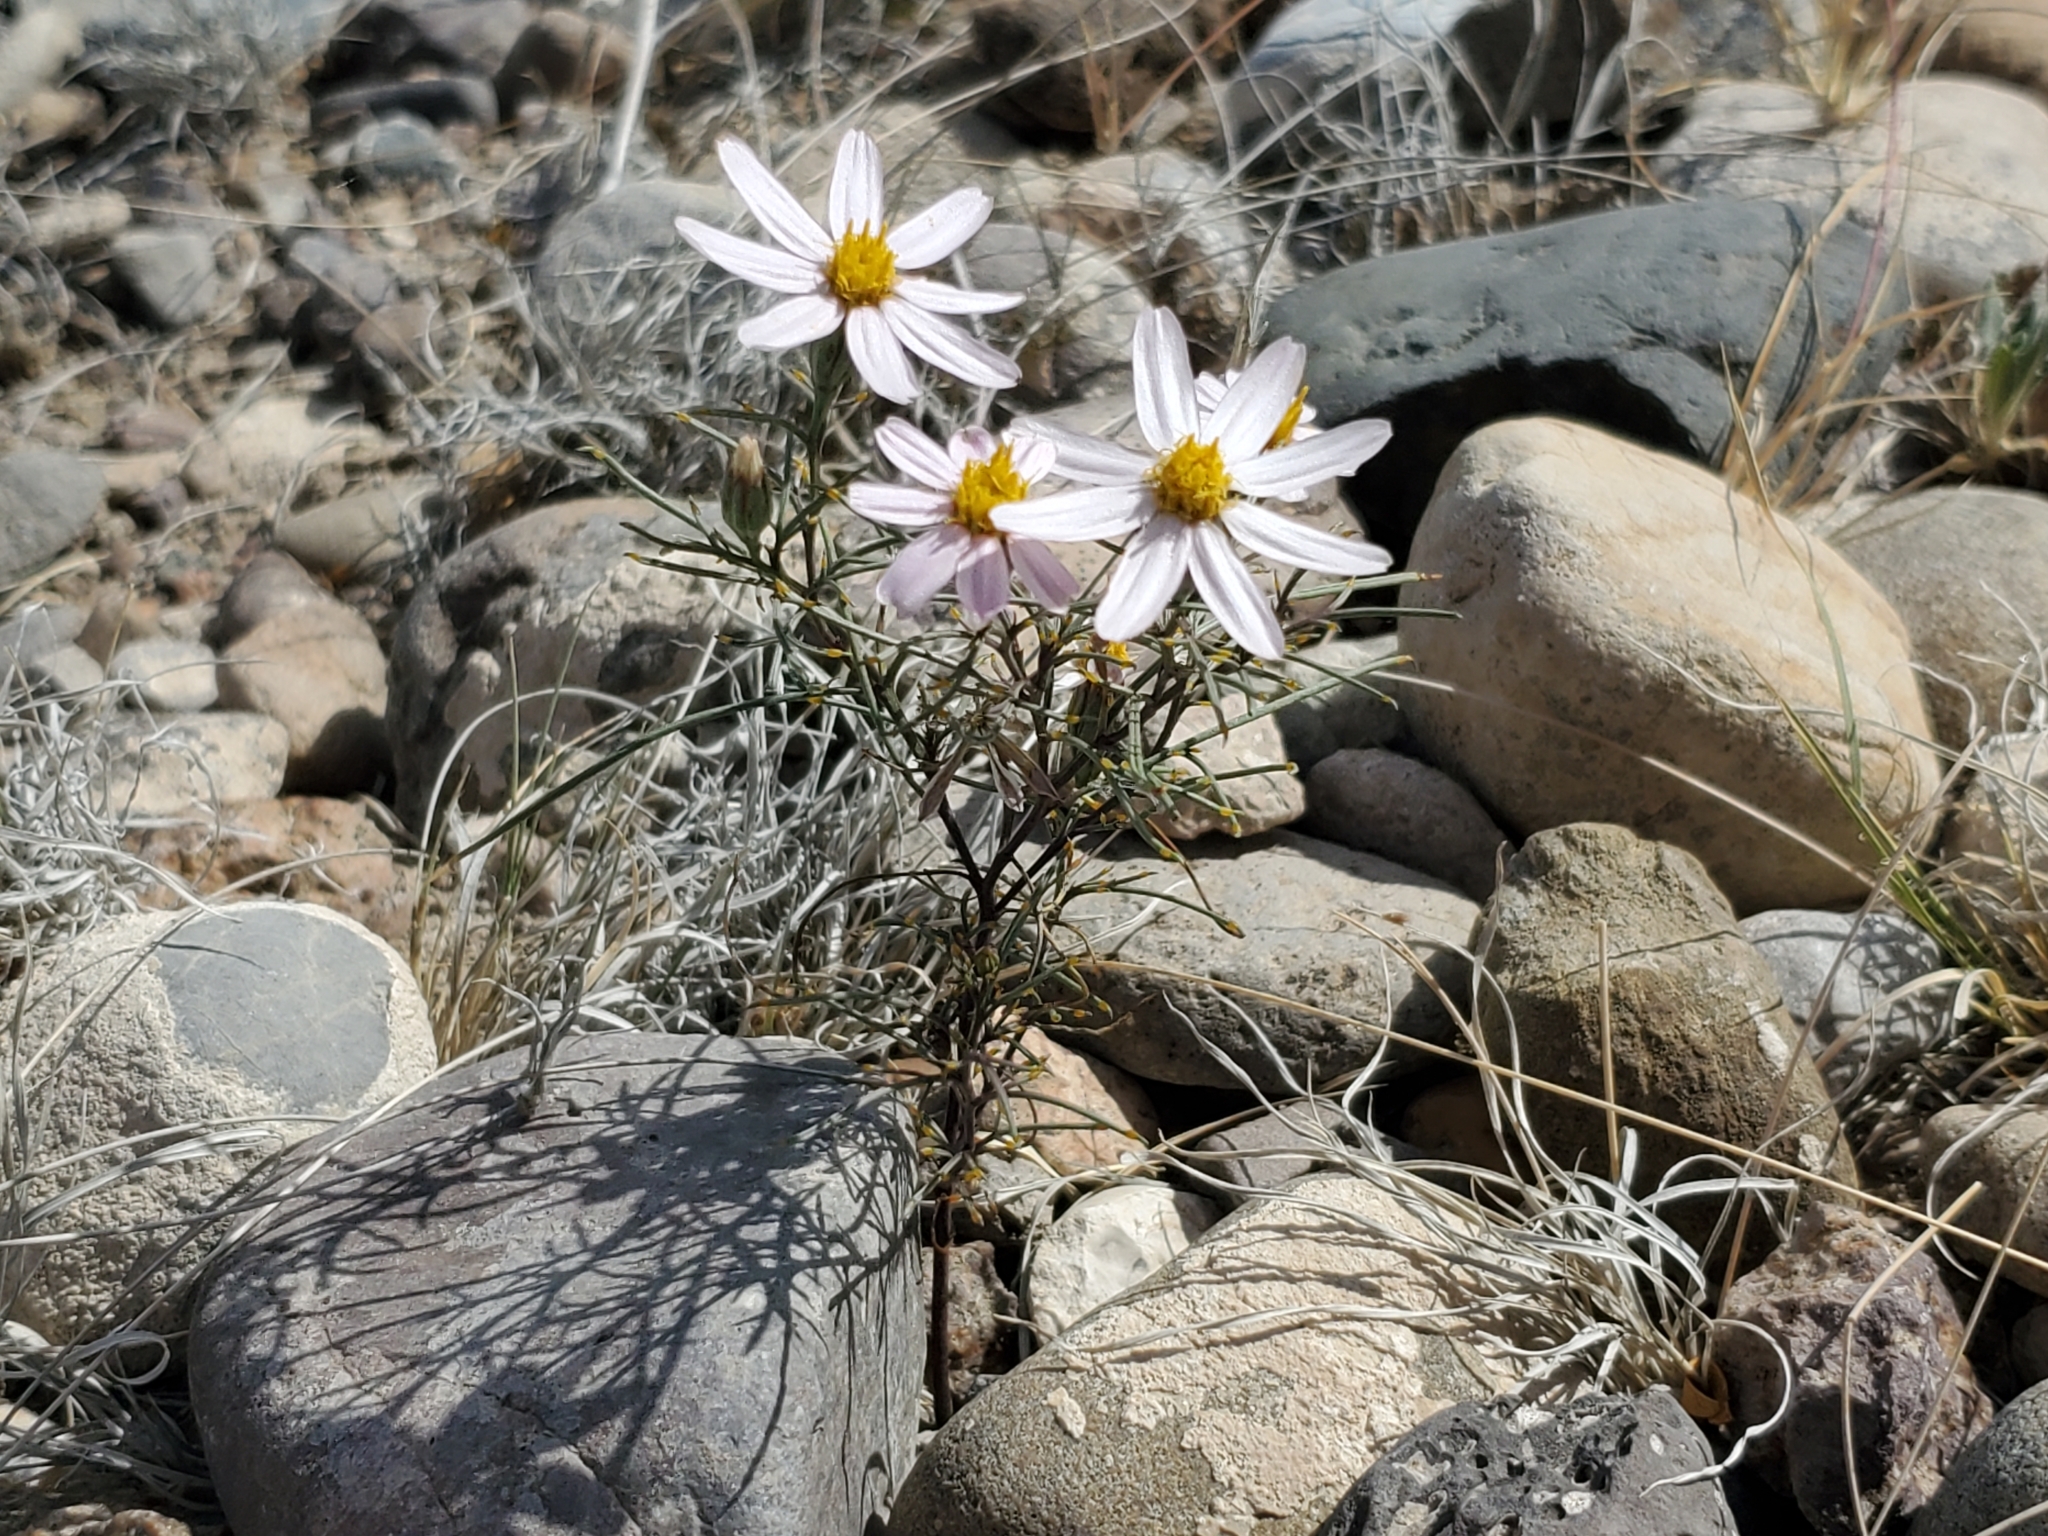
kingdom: Plantae
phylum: Tracheophyta
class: Magnoliopsida
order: Asterales
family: Asteraceae
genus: Nicolletia
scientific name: Nicolletia edwardsii
